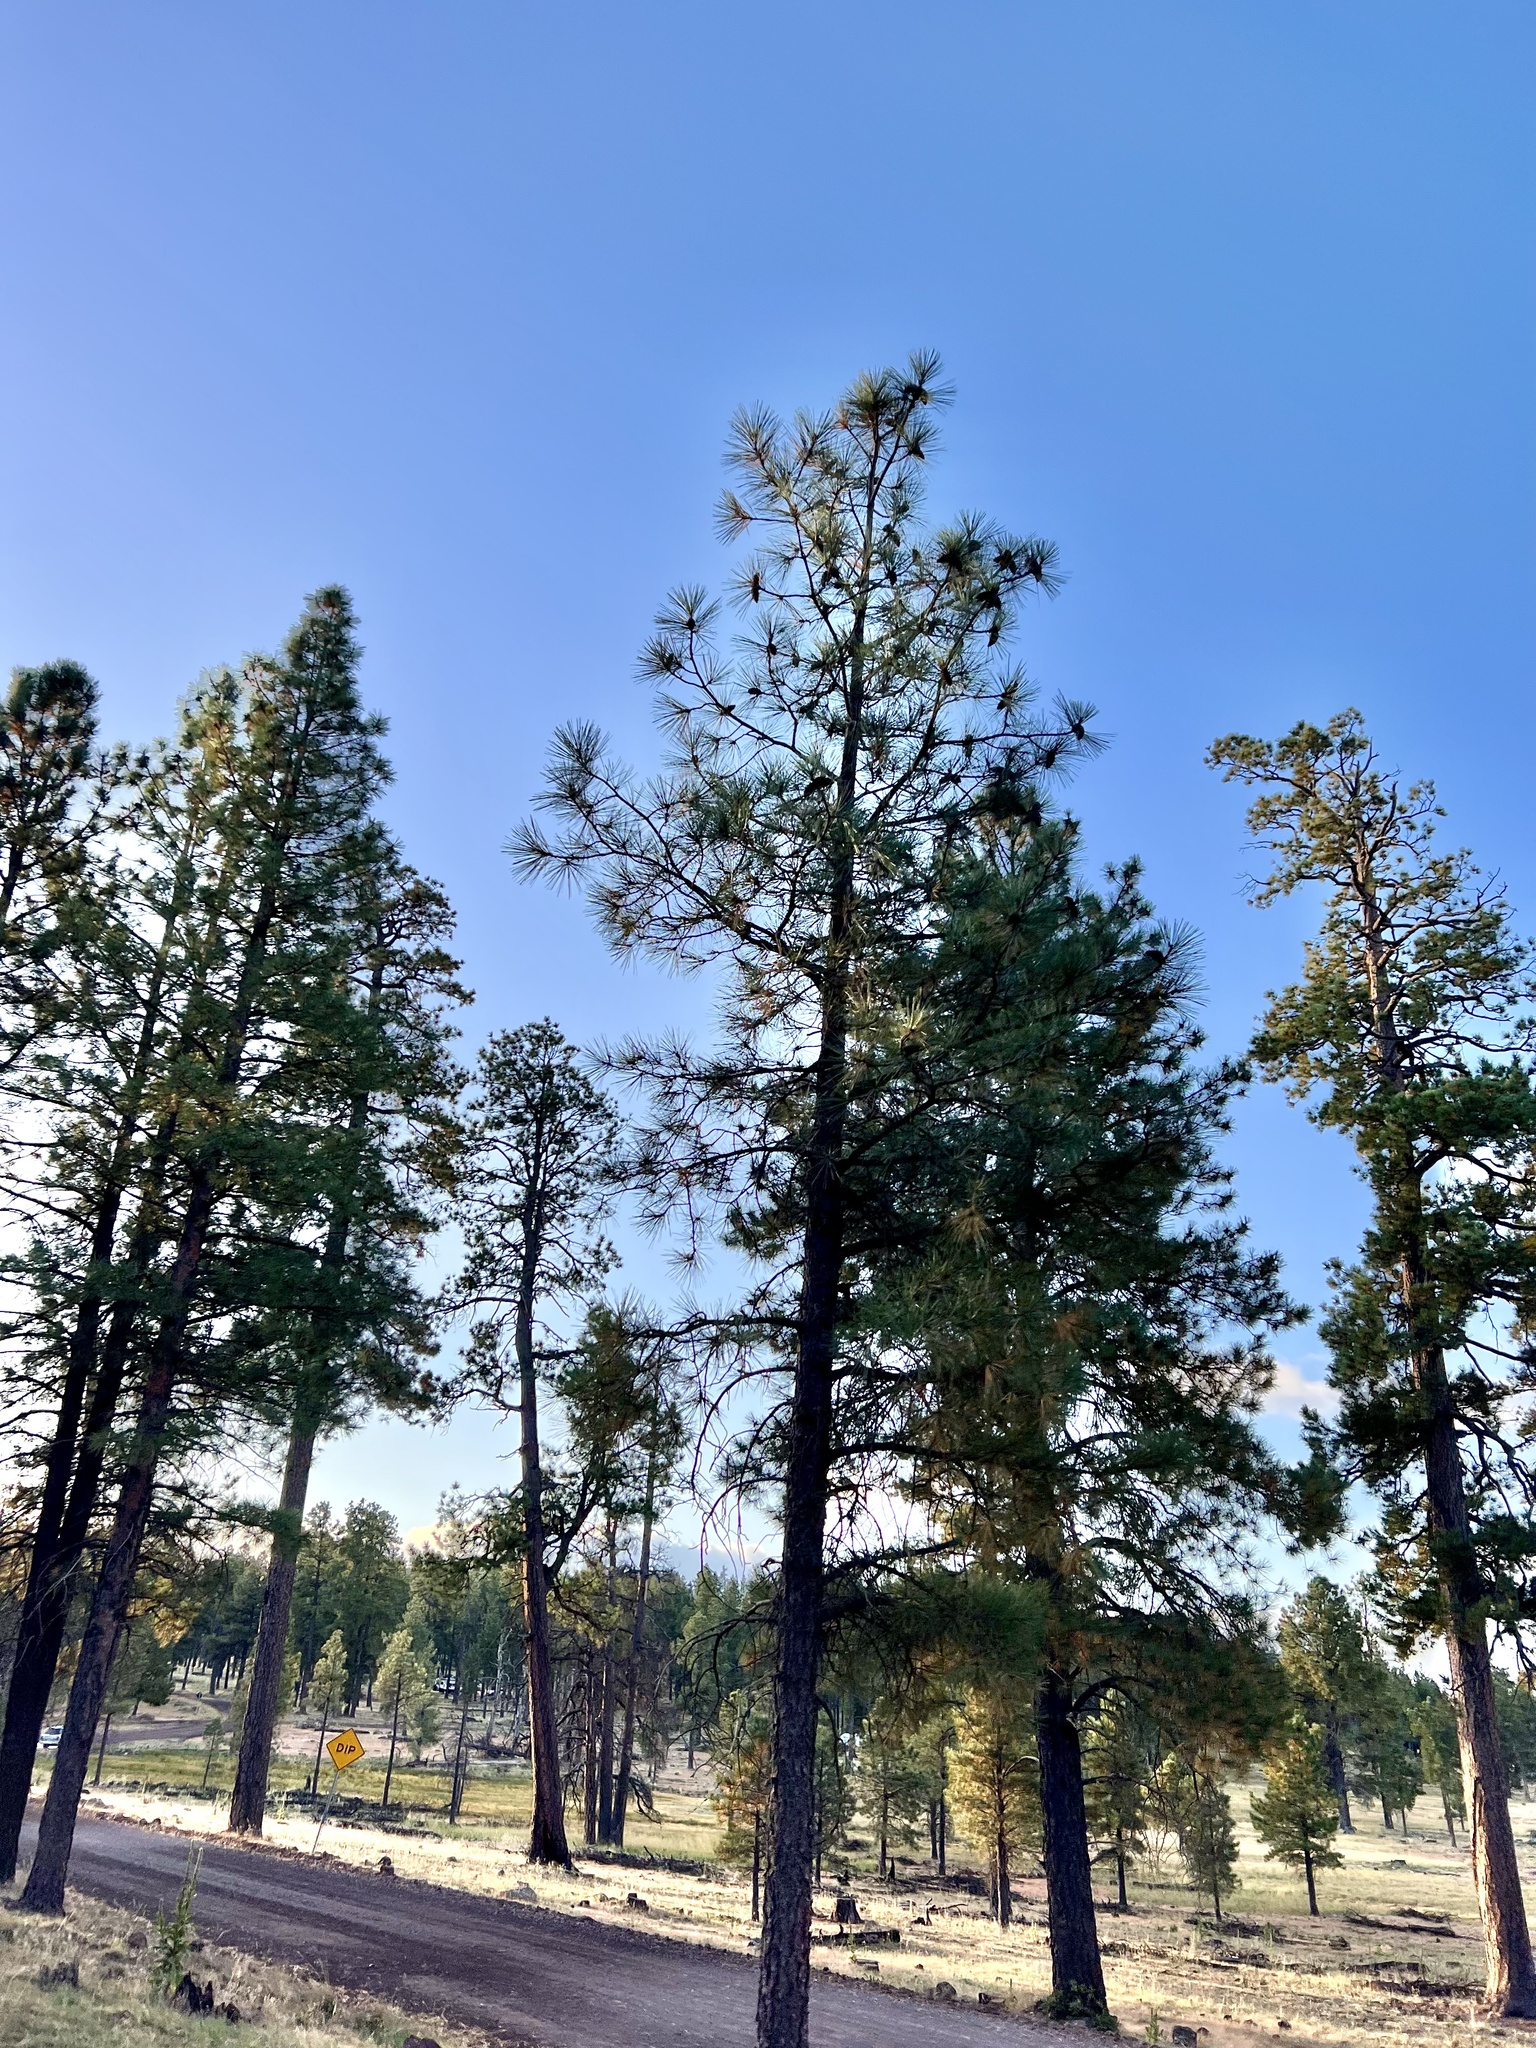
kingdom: Plantae
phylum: Tracheophyta
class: Pinopsida
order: Pinales
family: Pinaceae
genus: Pinus
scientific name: Pinus ponderosa
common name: Western yellow-pine
